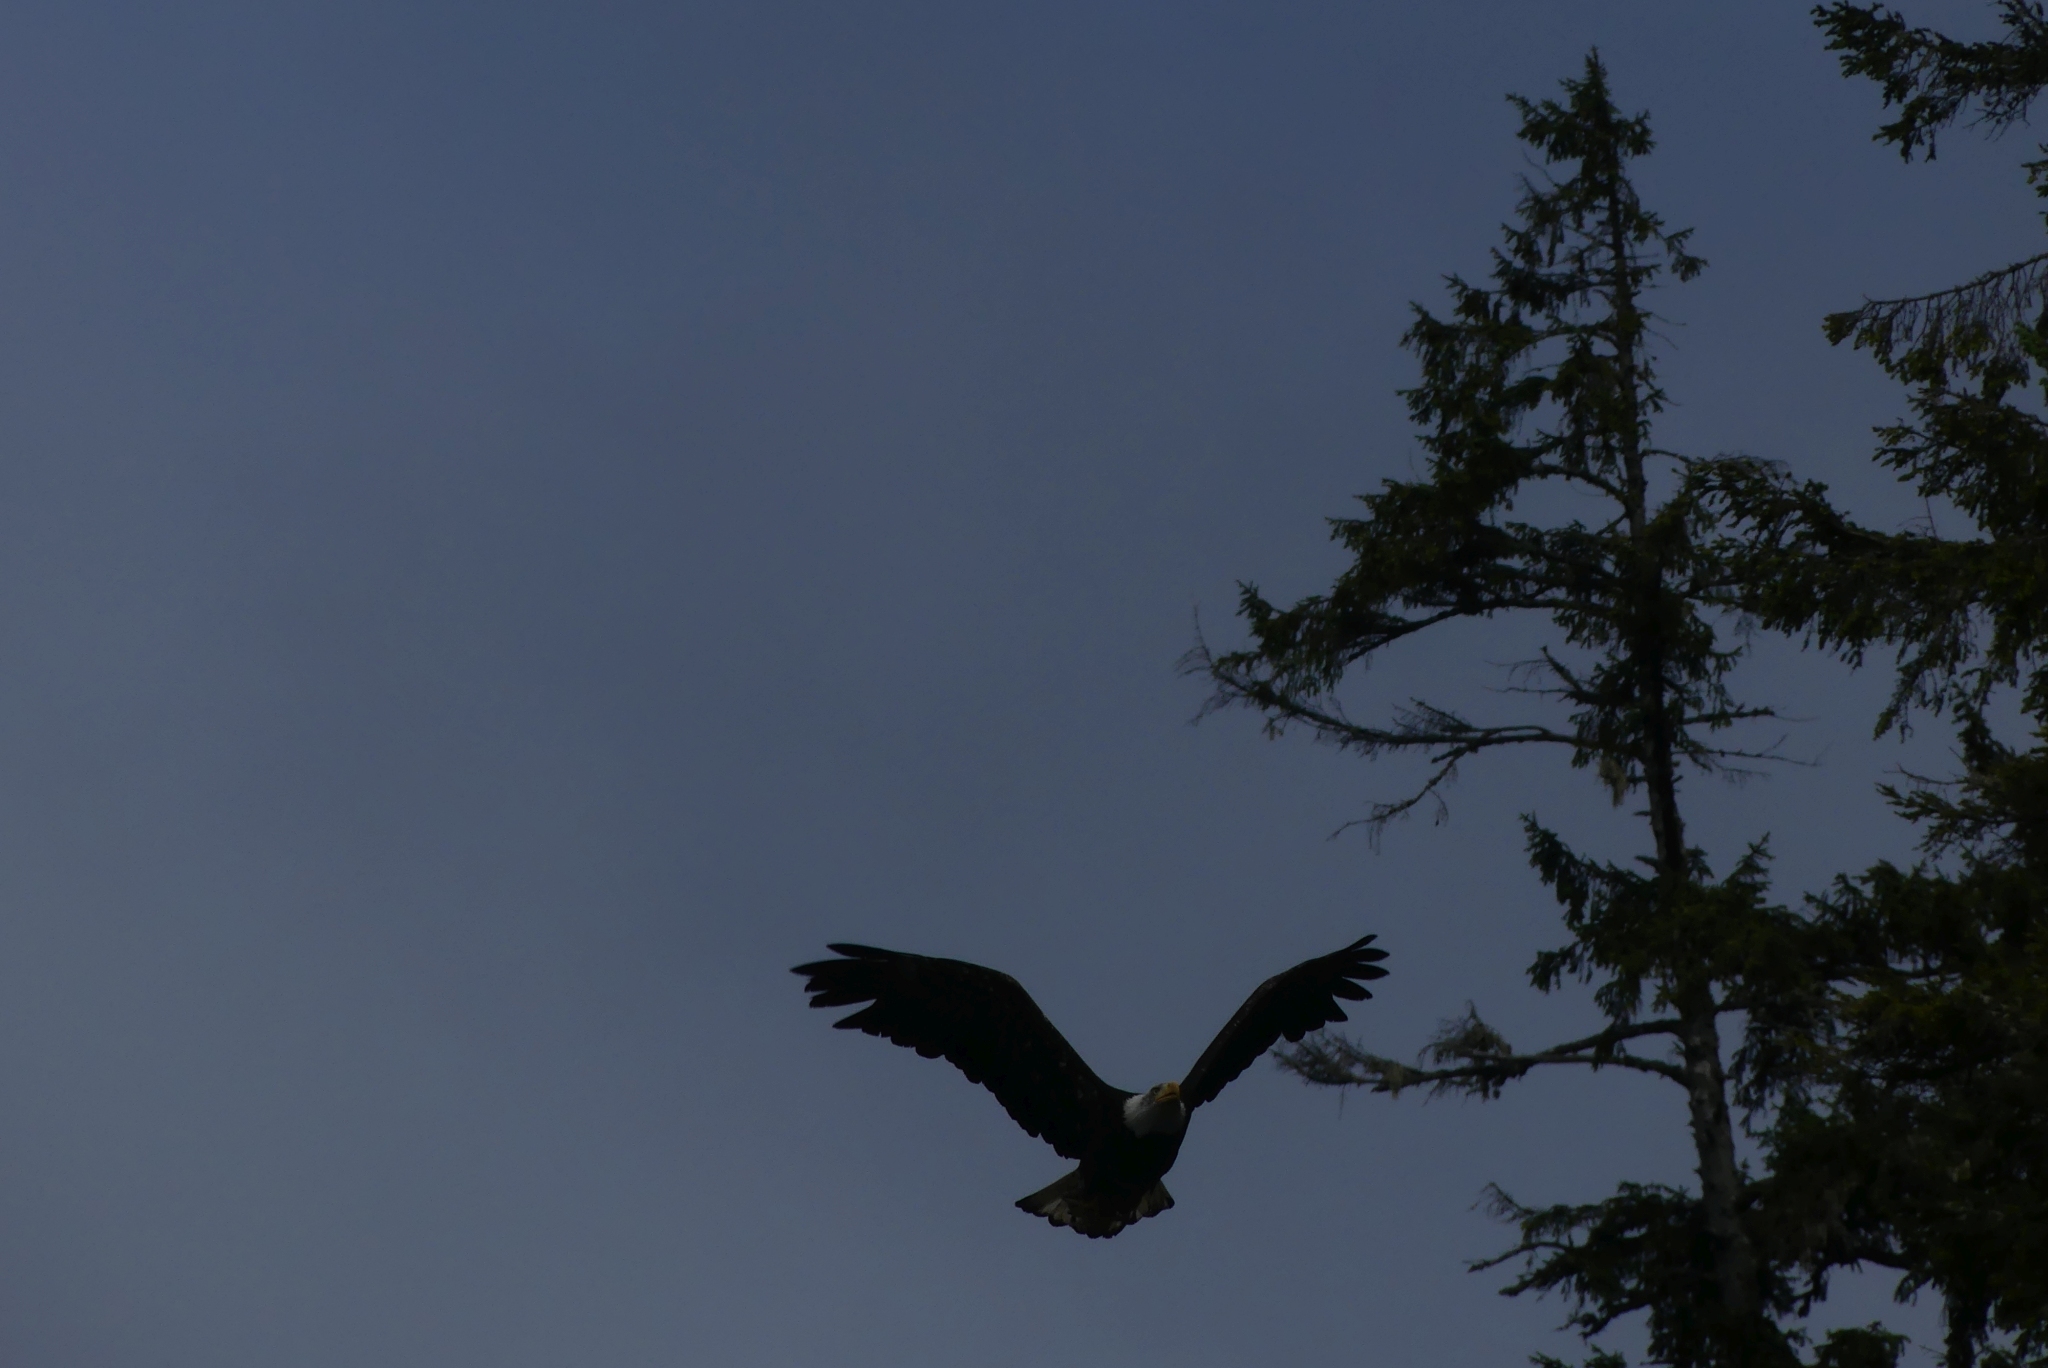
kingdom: Animalia
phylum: Chordata
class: Aves
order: Accipitriformes
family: Accipitridae
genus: Haliaeetus
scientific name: Haliaeetus leucocephalus
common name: Bald eagle
